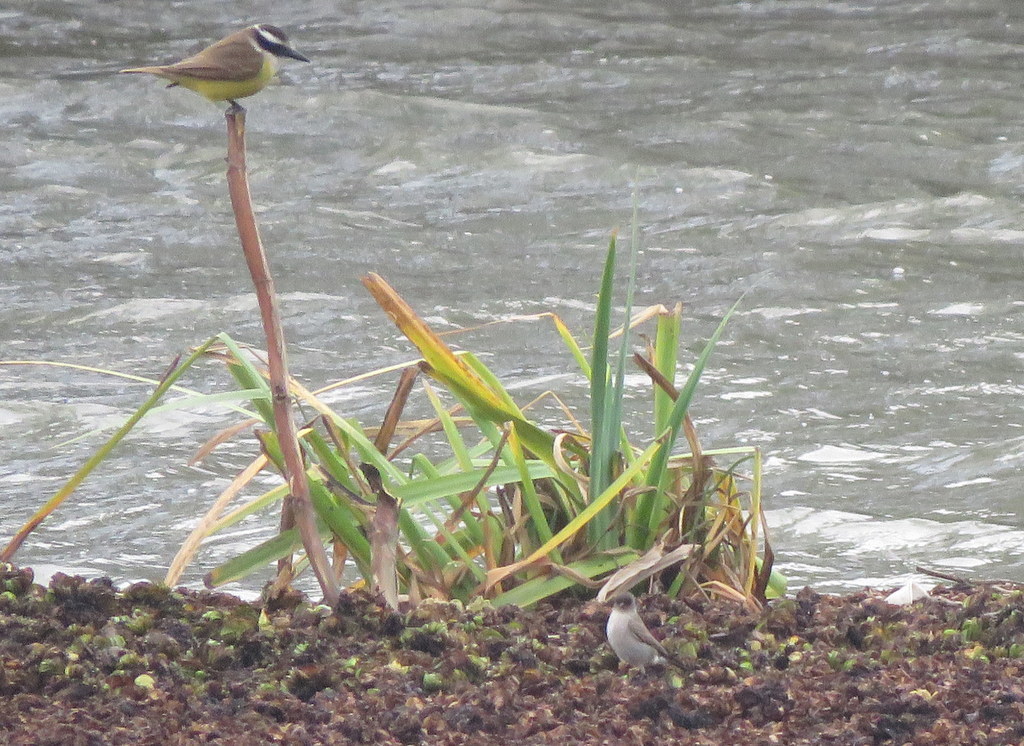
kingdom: Animalia
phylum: Chordata
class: Aves
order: Passeriformes
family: Tyrannidae
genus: Muscisaxicola
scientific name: Muscisaxicola maclovianus
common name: Dark-faced ground tyrant
